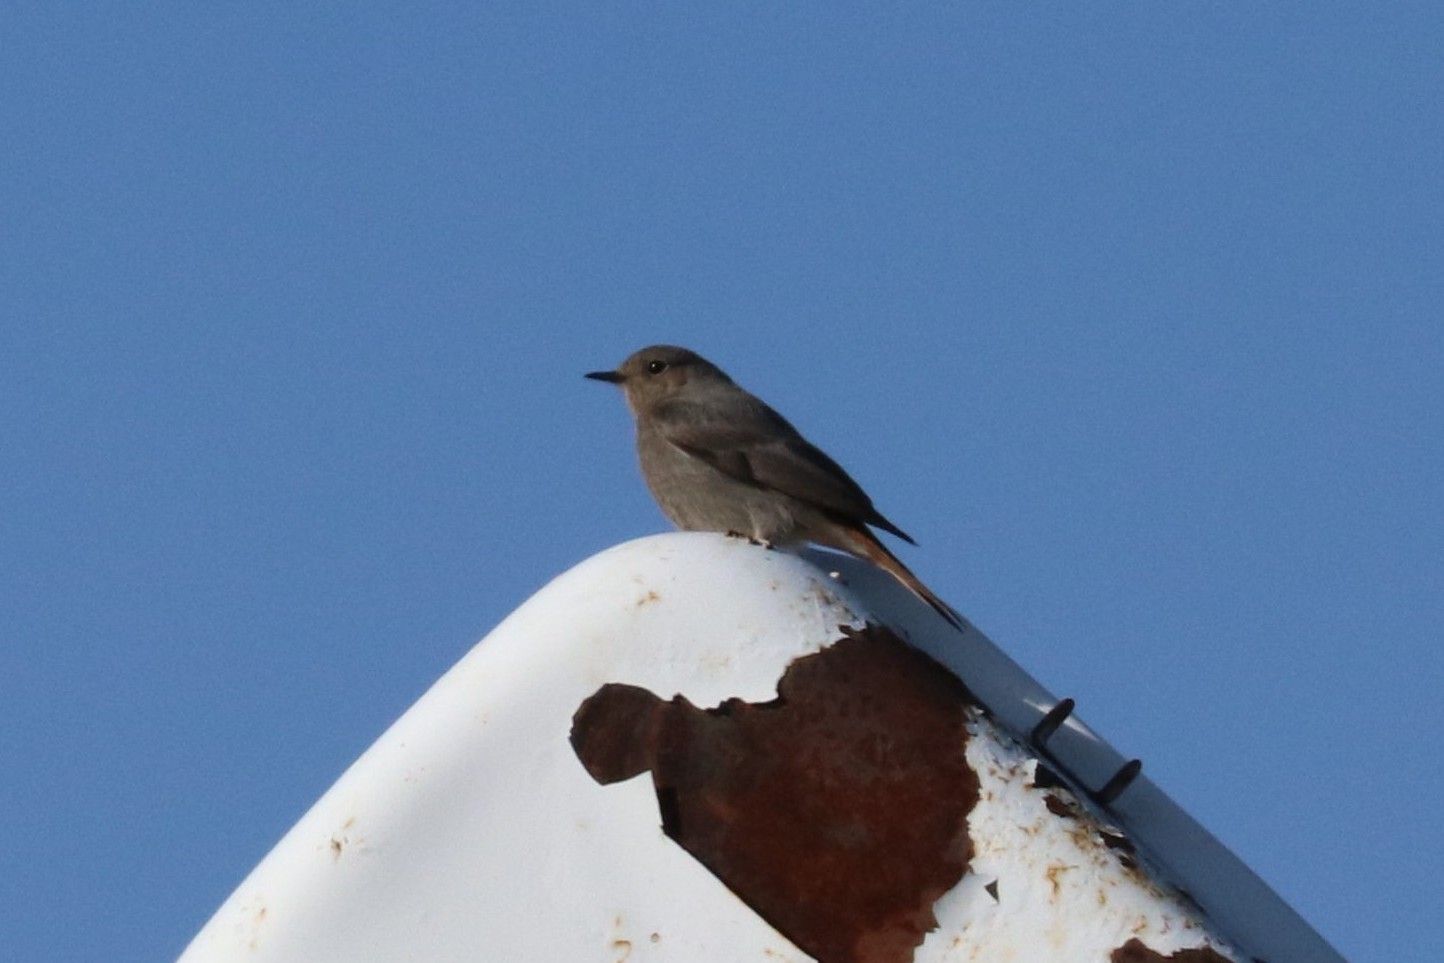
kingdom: Animalia
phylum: Chordata
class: Aves
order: Passeriformes
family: Muscicapidae
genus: Phoenicurus
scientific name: Phoenicurus ochruros
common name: Black redstart
